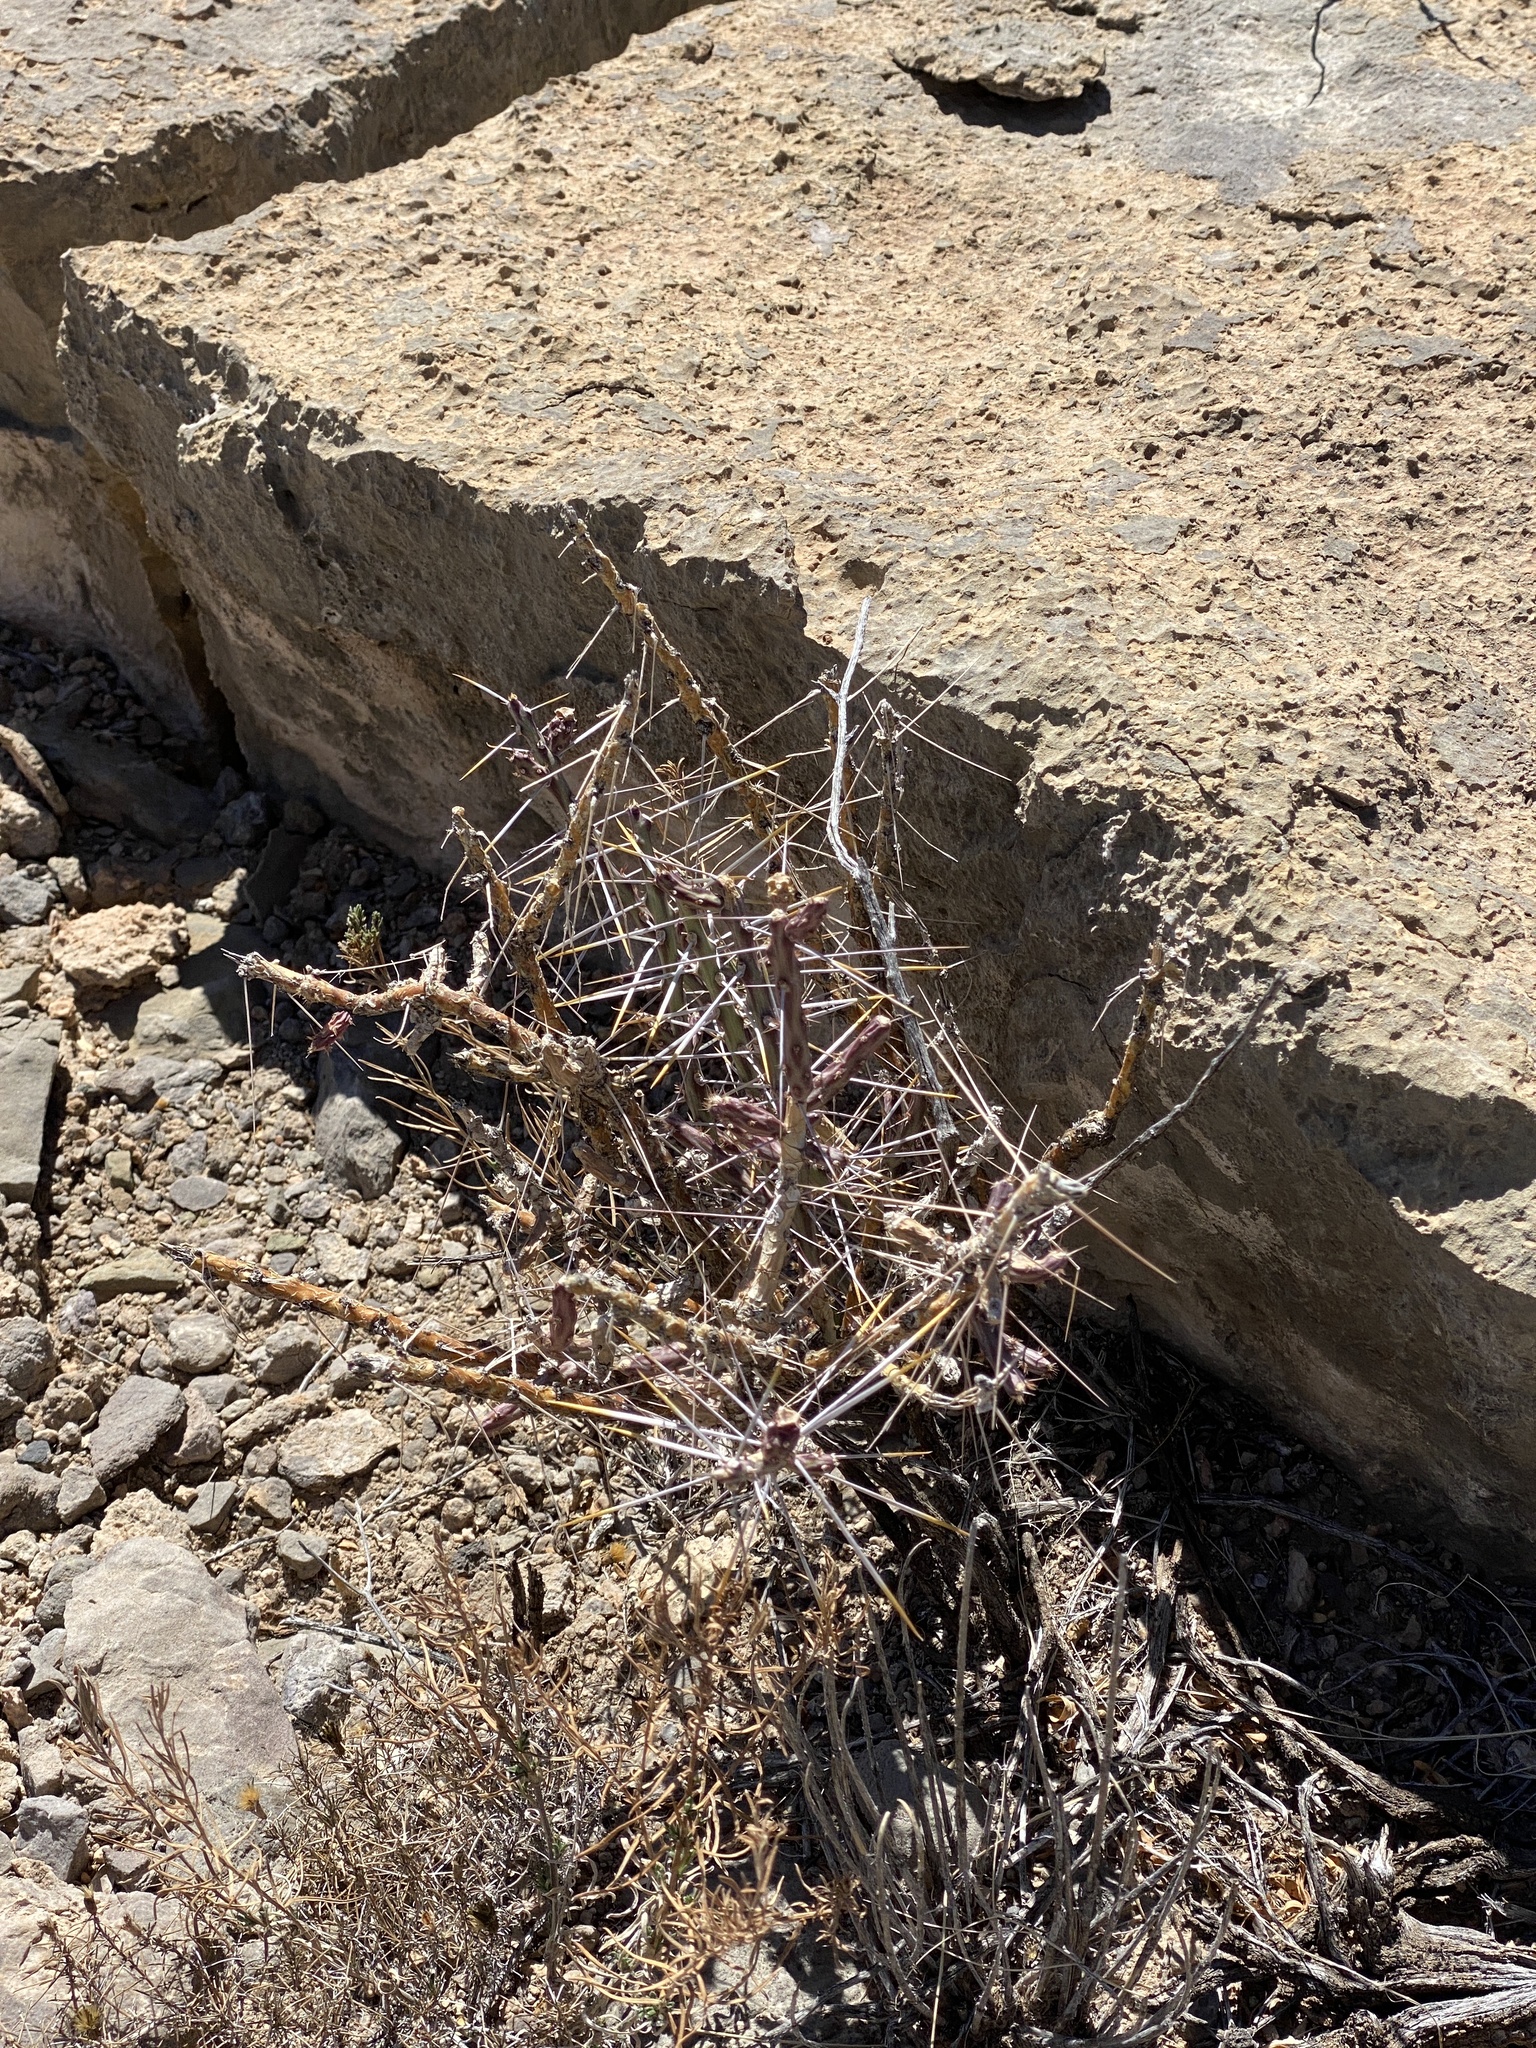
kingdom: Plantae
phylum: Tracheophyta
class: Magnoliopsida
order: Caryophyllales
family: Cactaceae
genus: Cylindropuntia
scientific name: Cylindropuntia leptocaulis
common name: Christmas cactus
